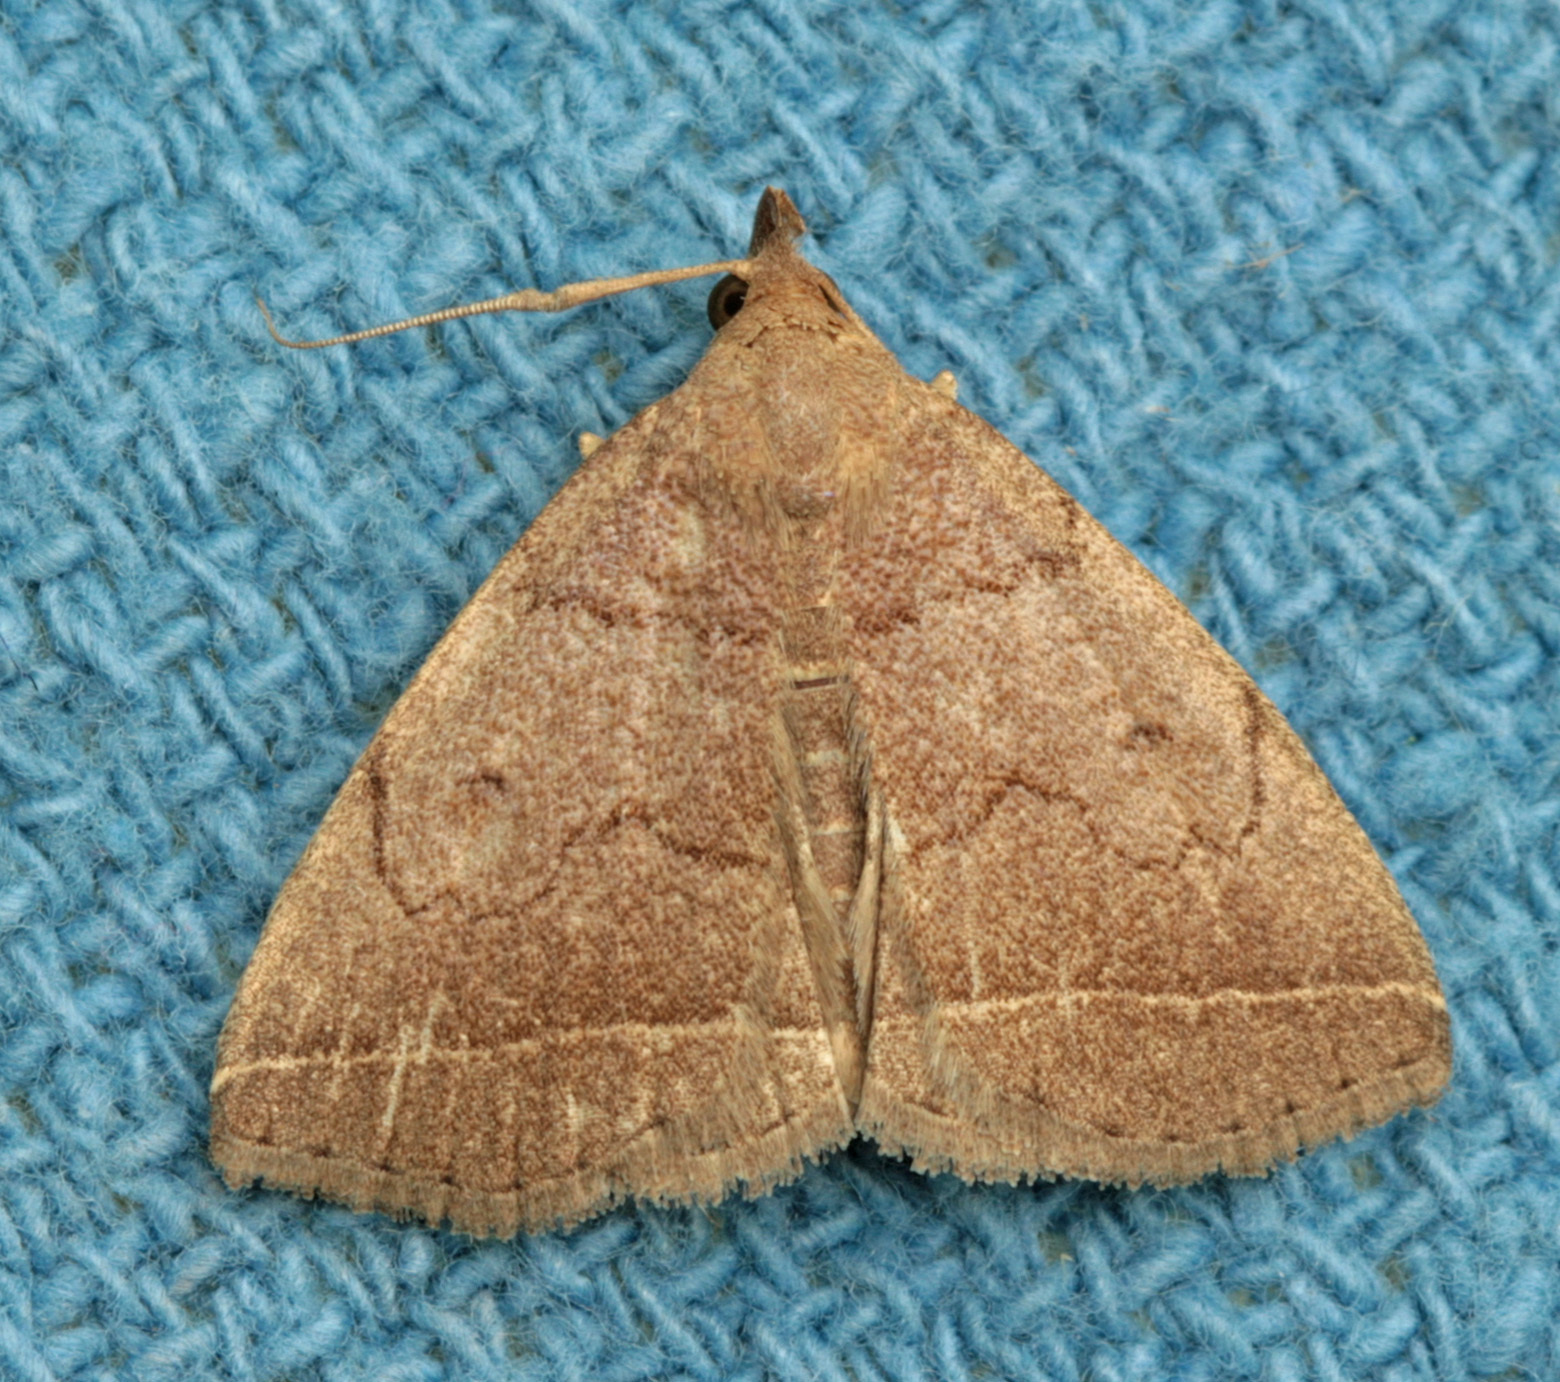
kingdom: Animalia
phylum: Arthropoda
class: Insecta
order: Lepidoptera
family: Erebidae
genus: Zanclognatha
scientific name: Zanclognatha
